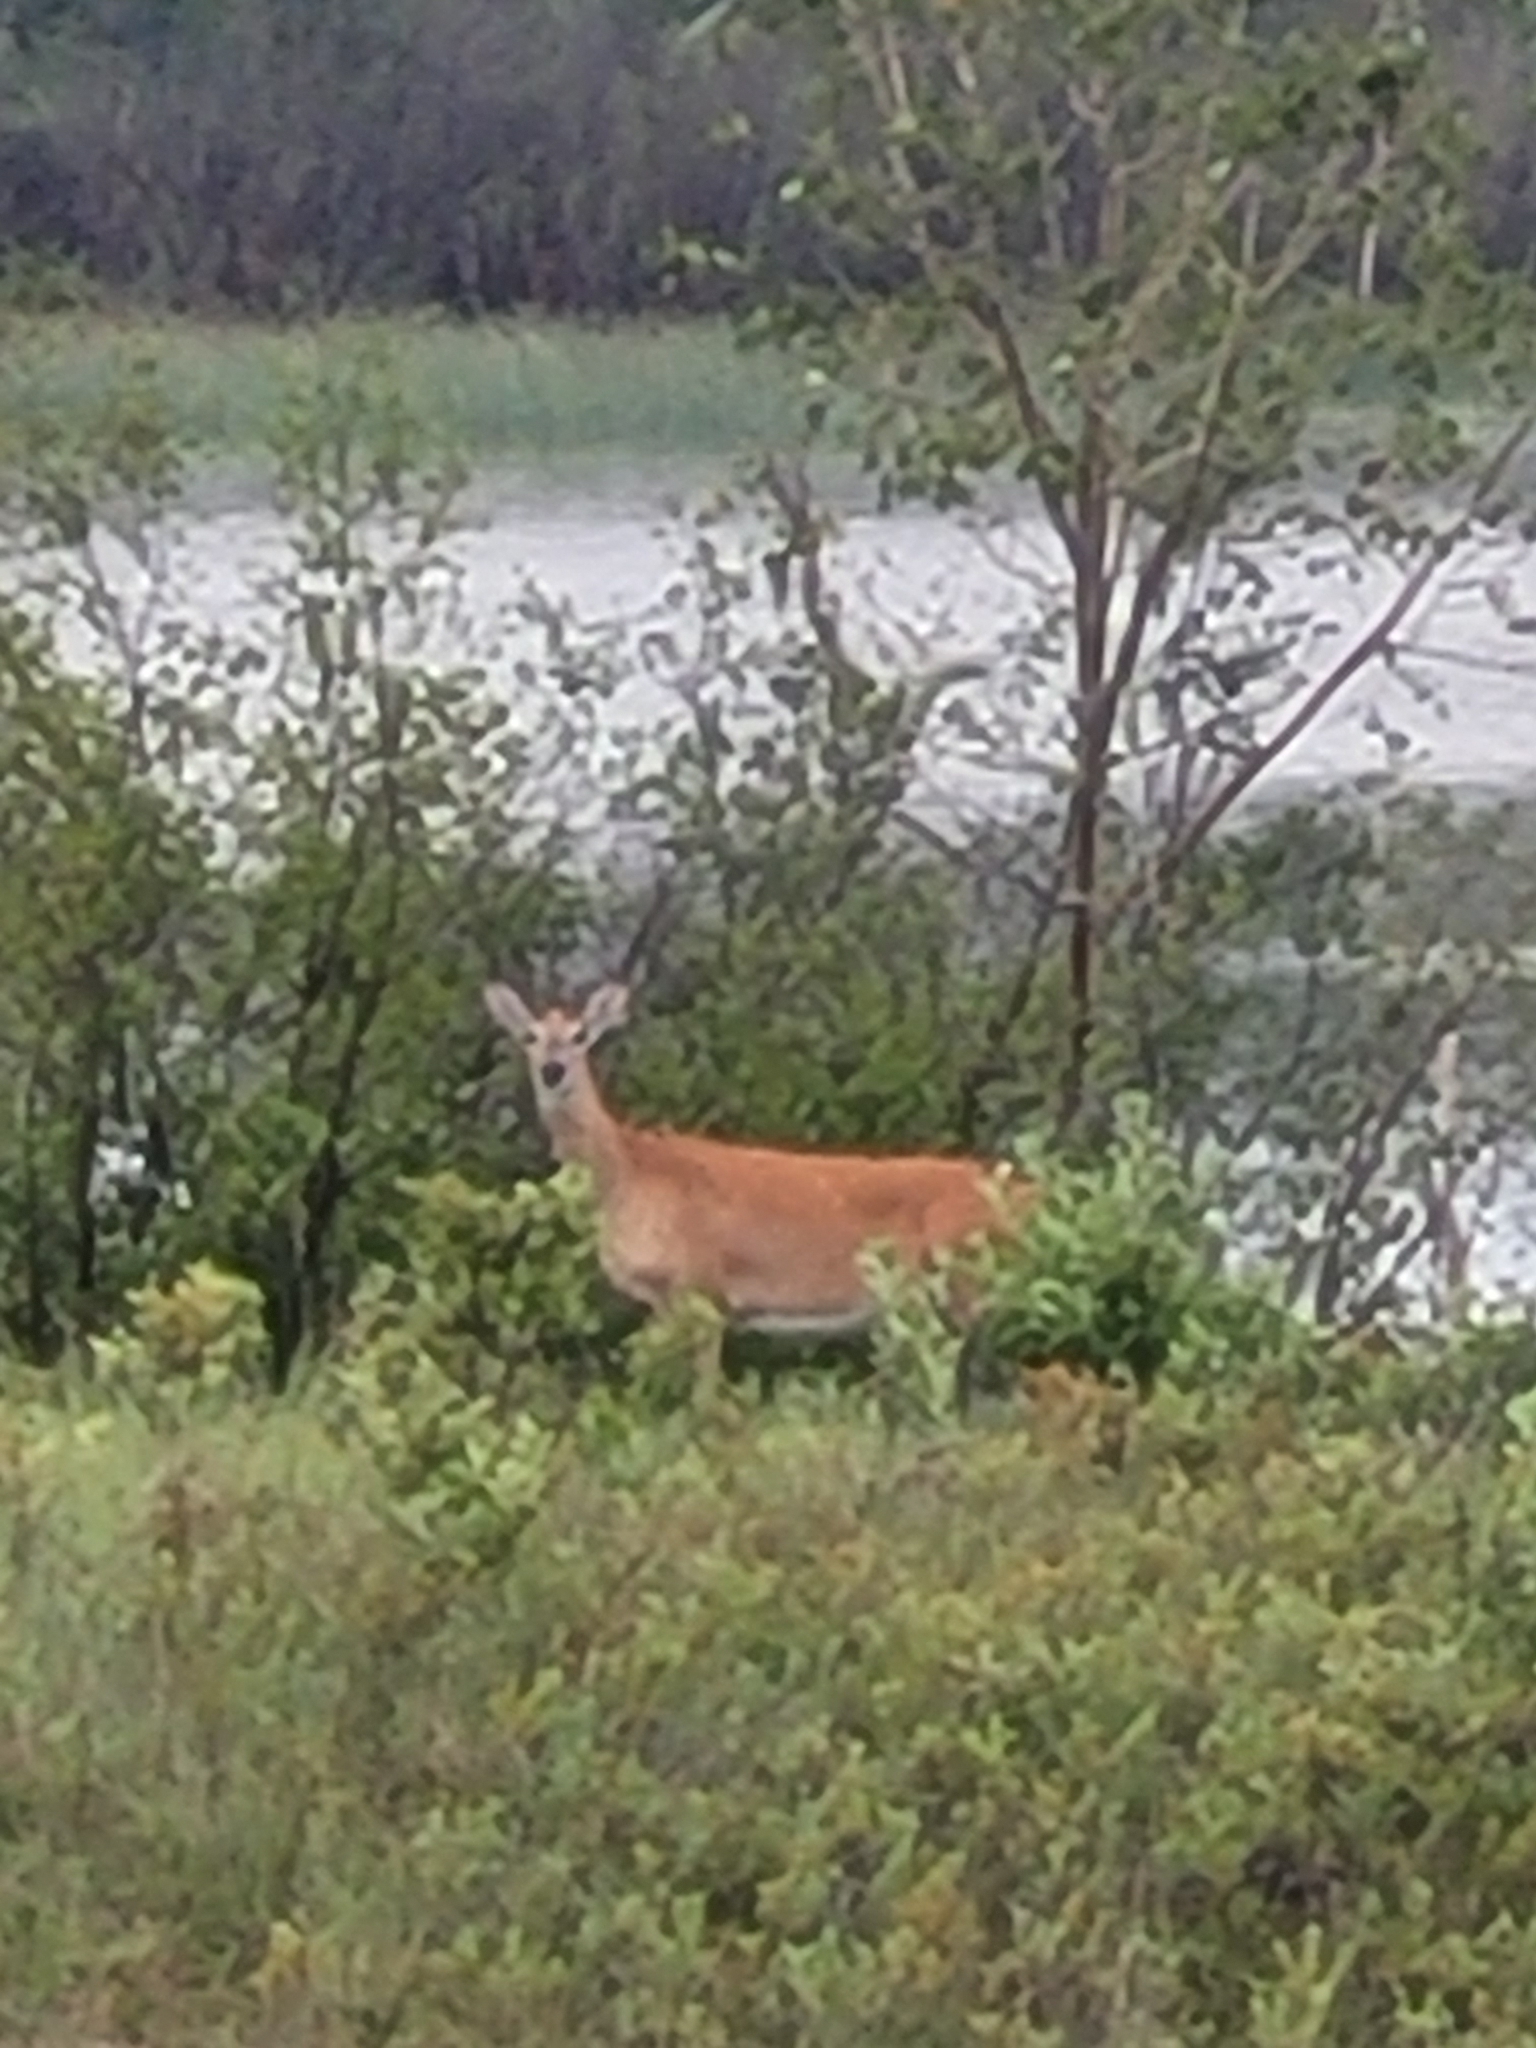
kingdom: Animalia
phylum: Chordata
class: Mammalia
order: Artiodactyla
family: Cervidae
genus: Odocoileus
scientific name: Odocoileus virginianus
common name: White-tailed deer
